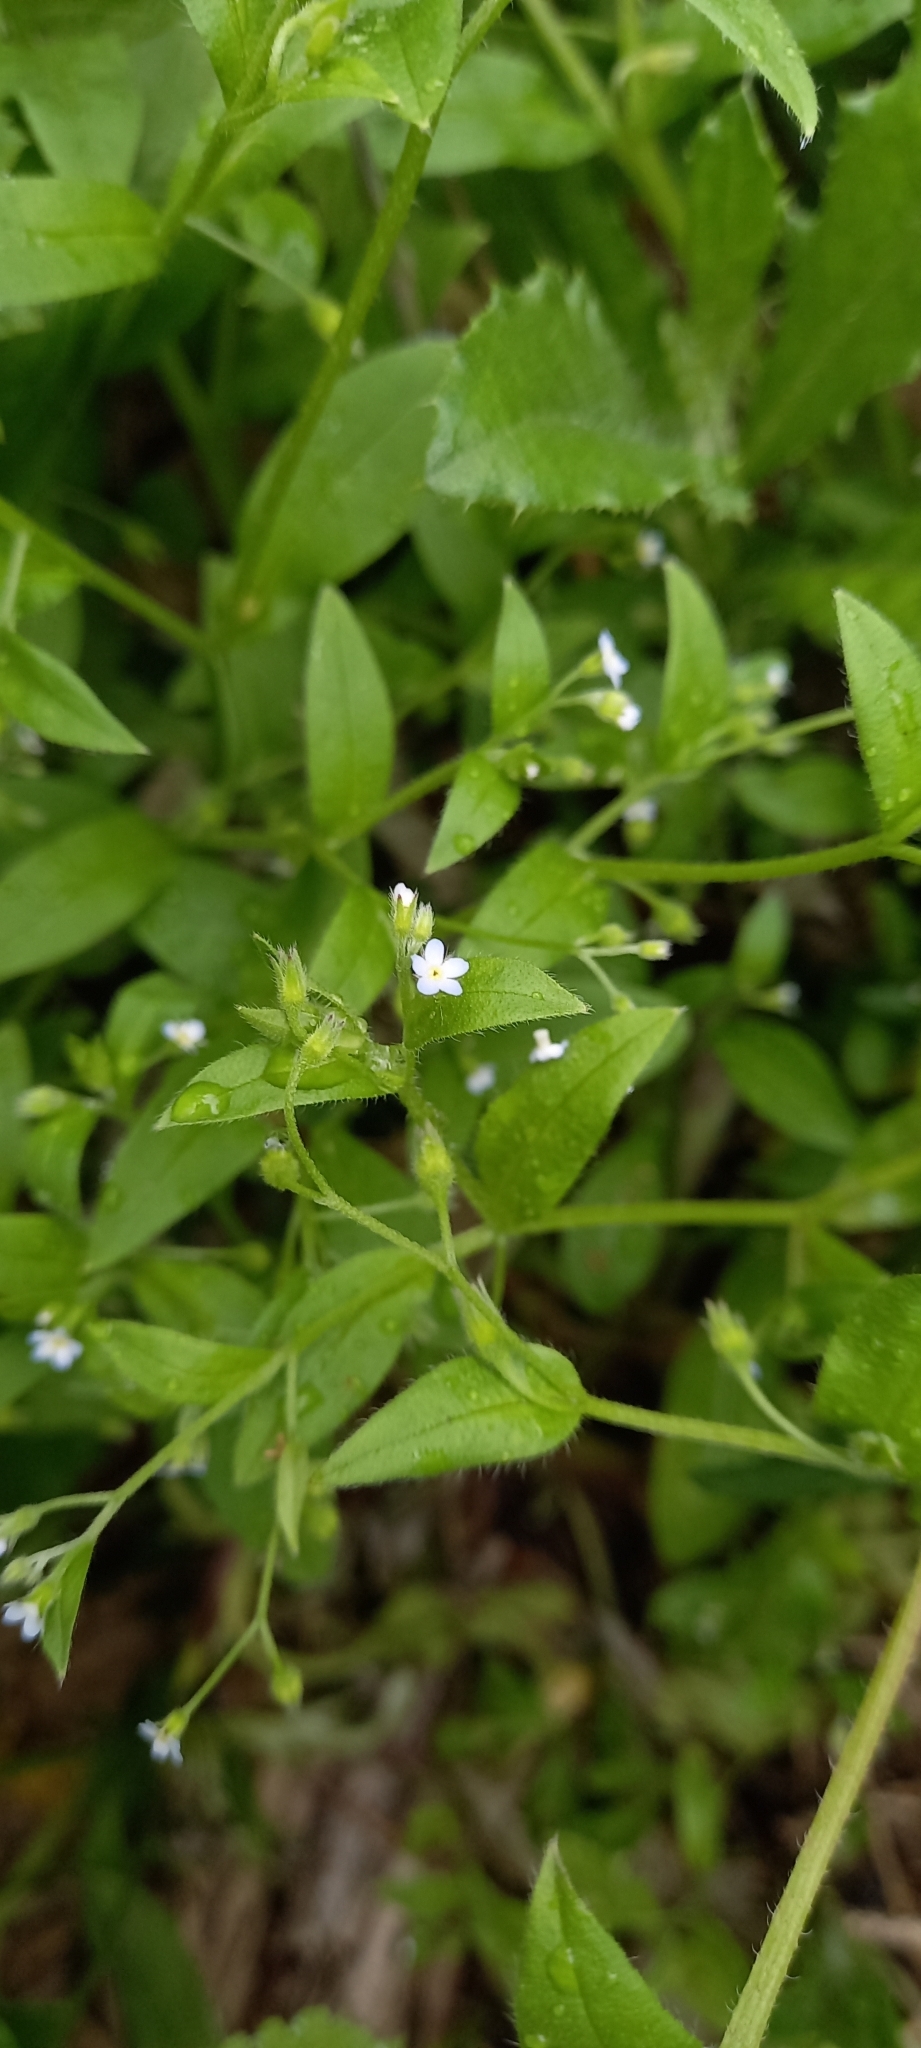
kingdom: Plantae
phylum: Tracheophyta
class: Magnoliopsida
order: Boraginales
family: Boraginaceae
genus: Myosotis
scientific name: Myosotis sparsiflora
